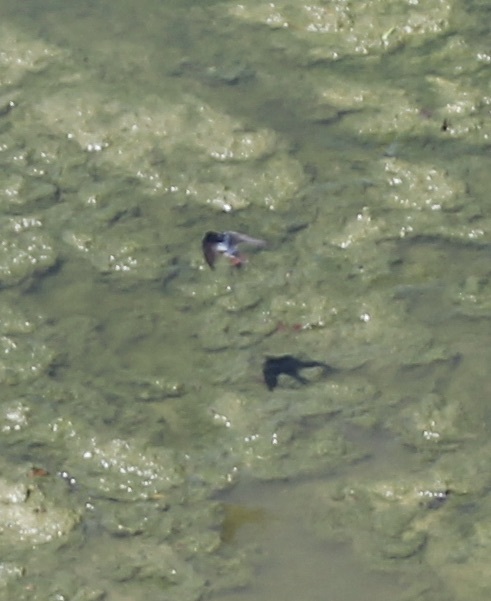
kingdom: Animalia
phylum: Chordata
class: Aves
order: Passeriformes
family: Hirundinidae
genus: Hirundo
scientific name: Hirundo rustica
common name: Barn swallow
